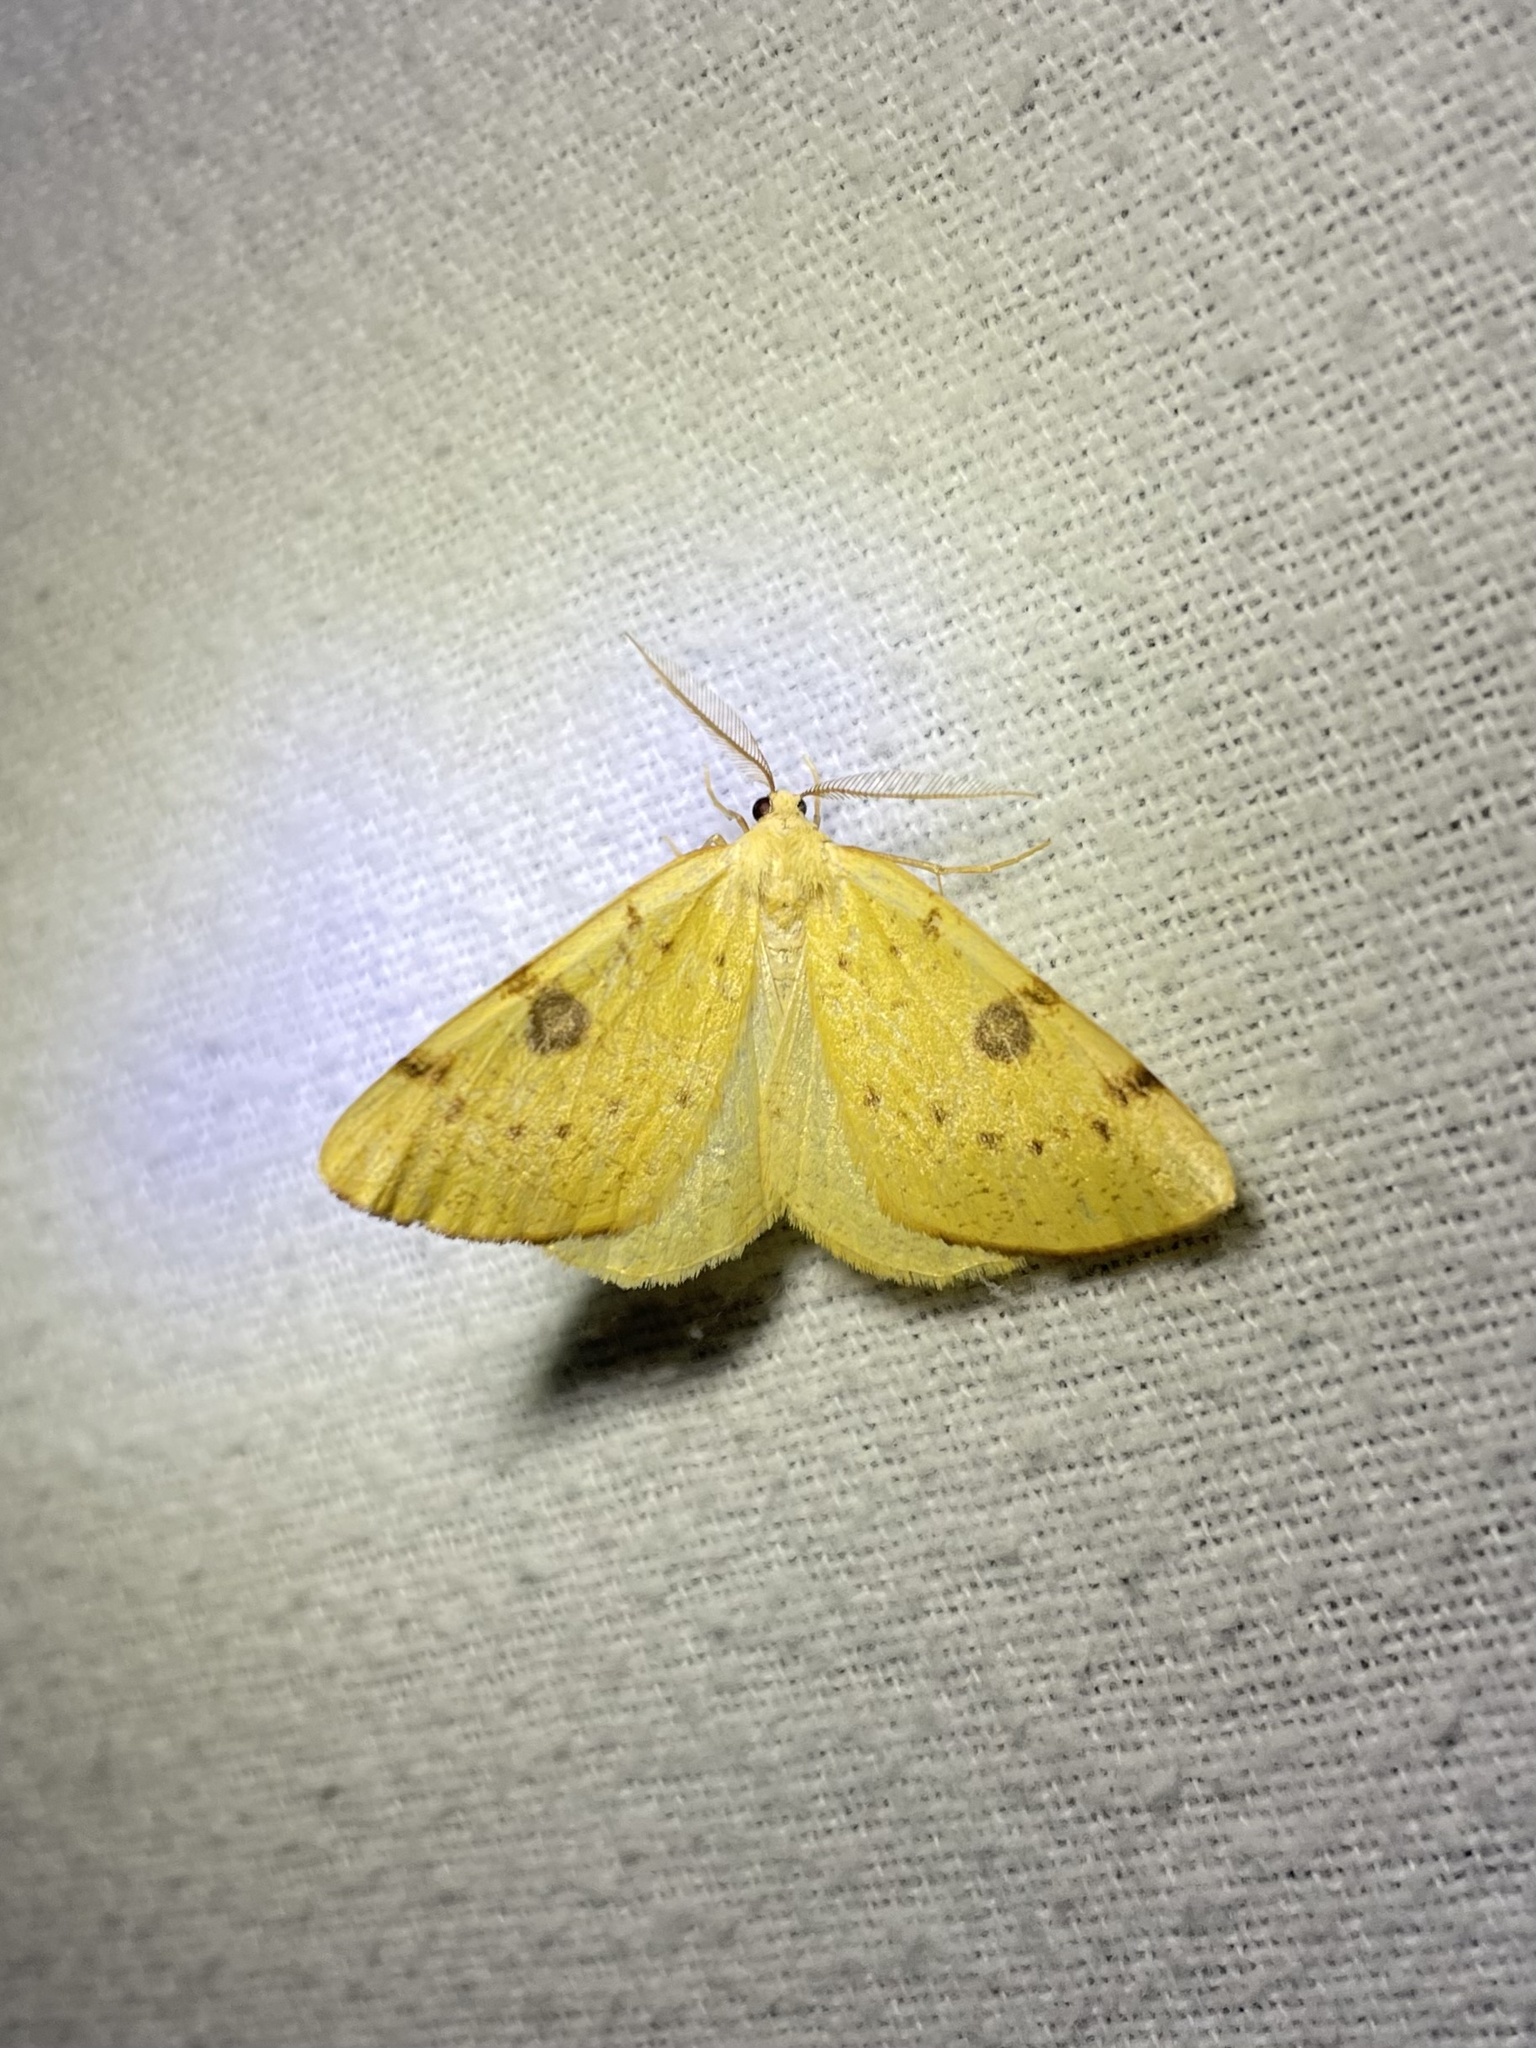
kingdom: Animalia
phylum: Arthropoda
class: Insecta
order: Lepidoptera
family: Geometridae
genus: Hesperumia
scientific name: Hesperumia sulphuraria
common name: Sulphur moth
